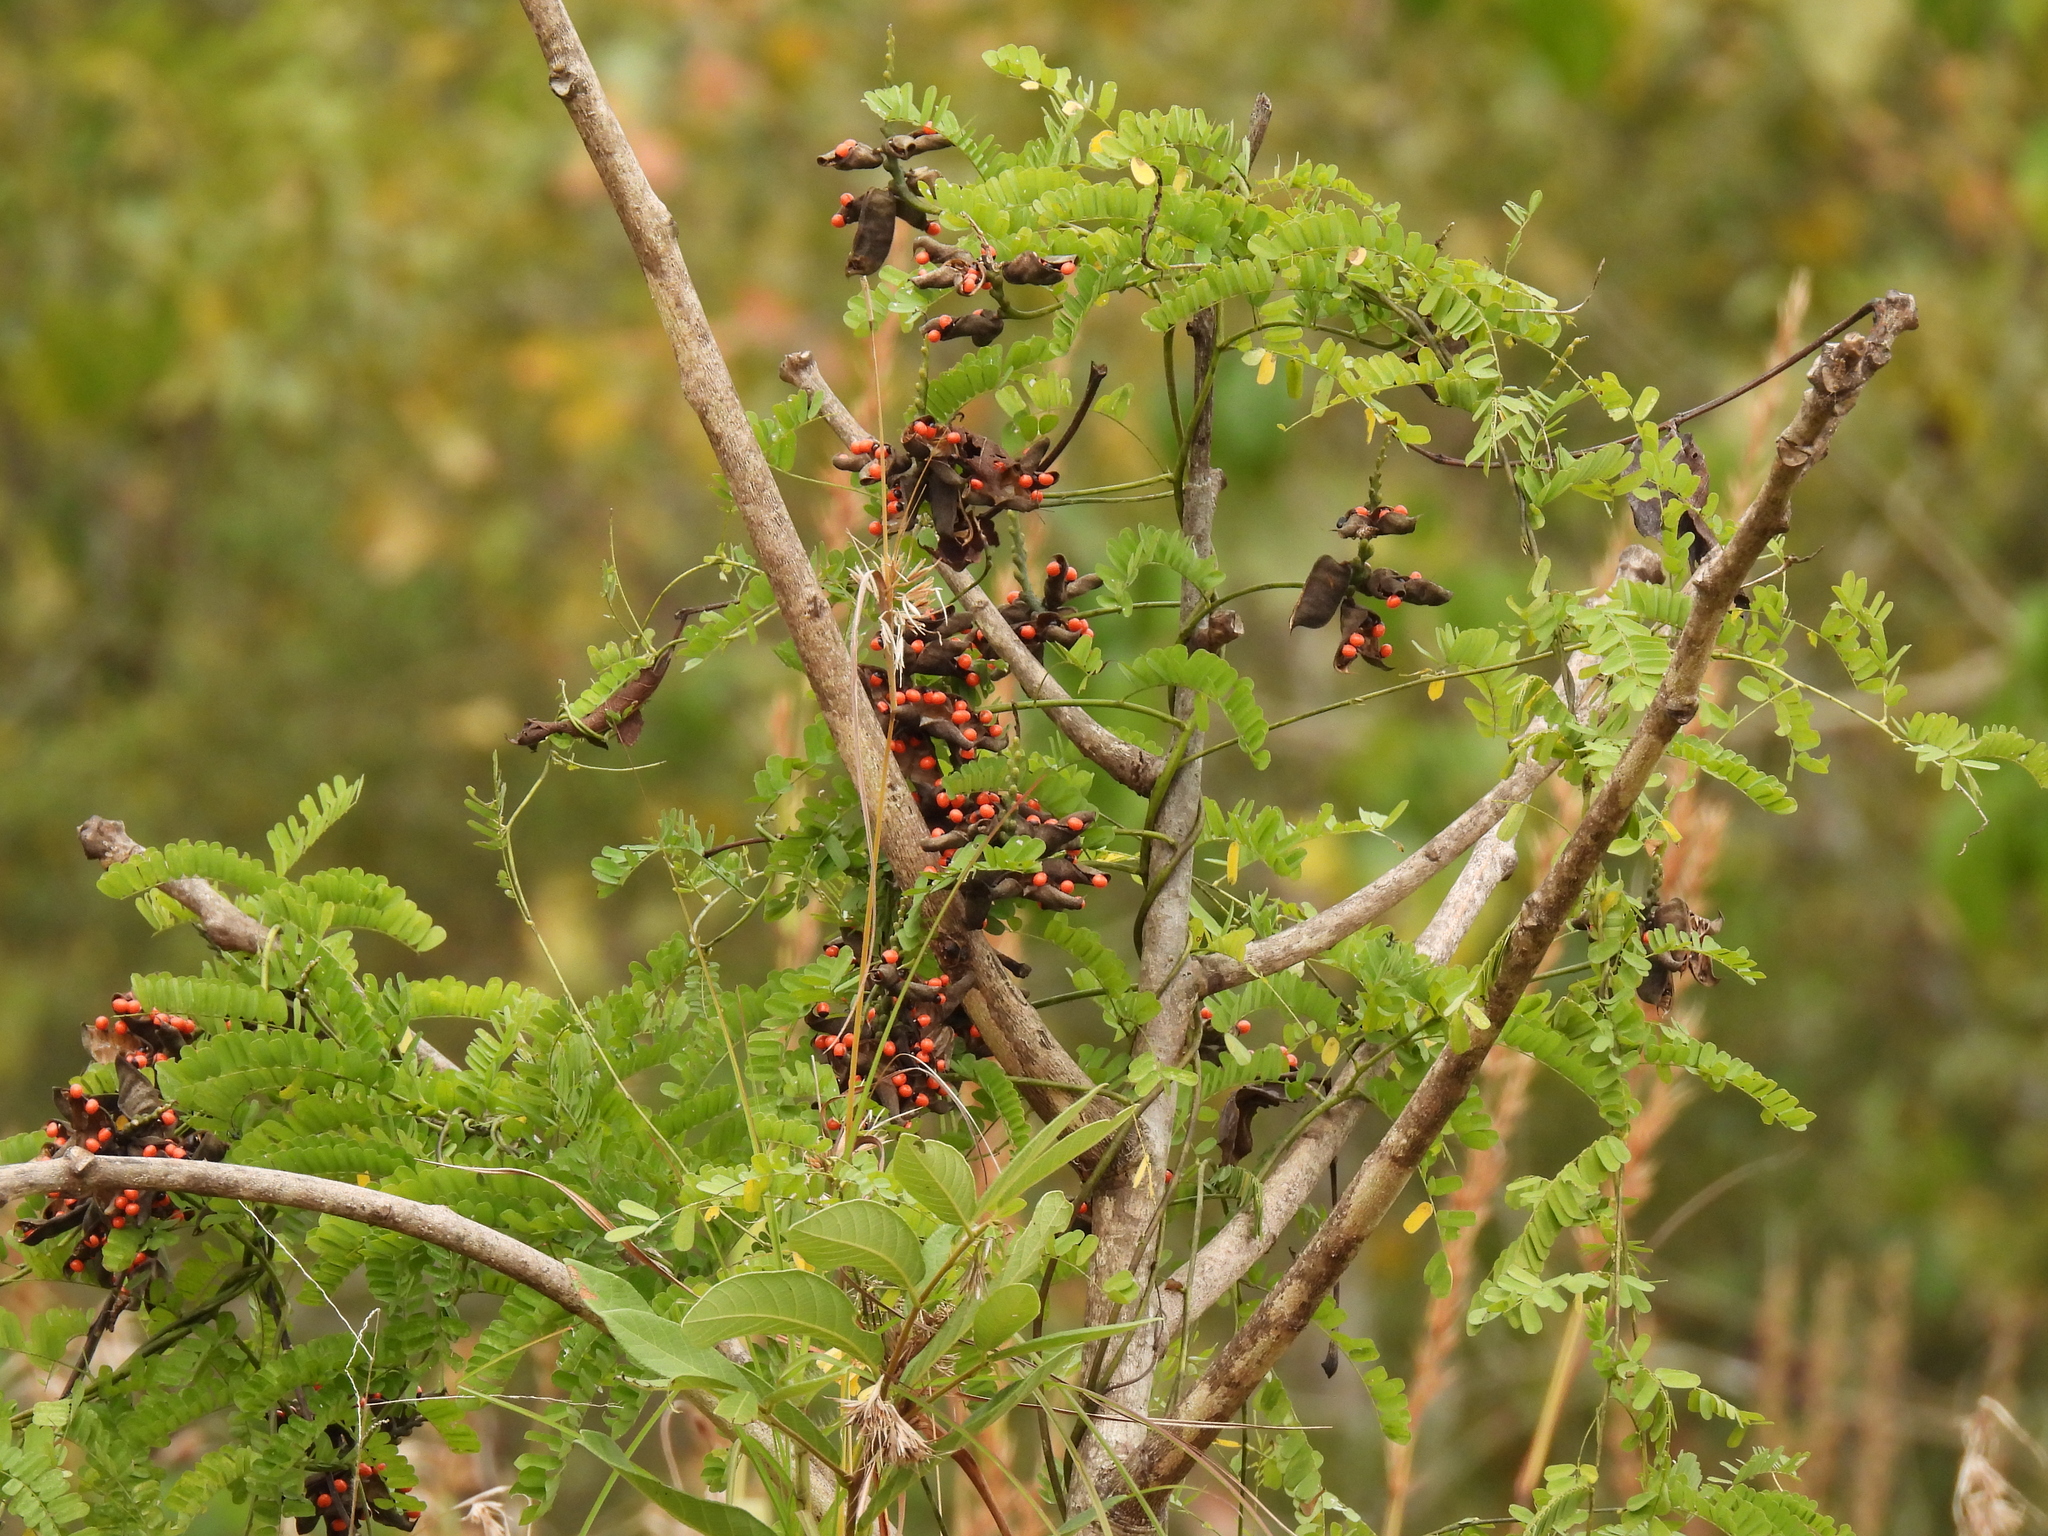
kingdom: Plantae
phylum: Tracheophyta
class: Magnoliopsida
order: Fabales
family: Fabaceae
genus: Abrus
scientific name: Abrus precatorius
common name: Rosarypea
